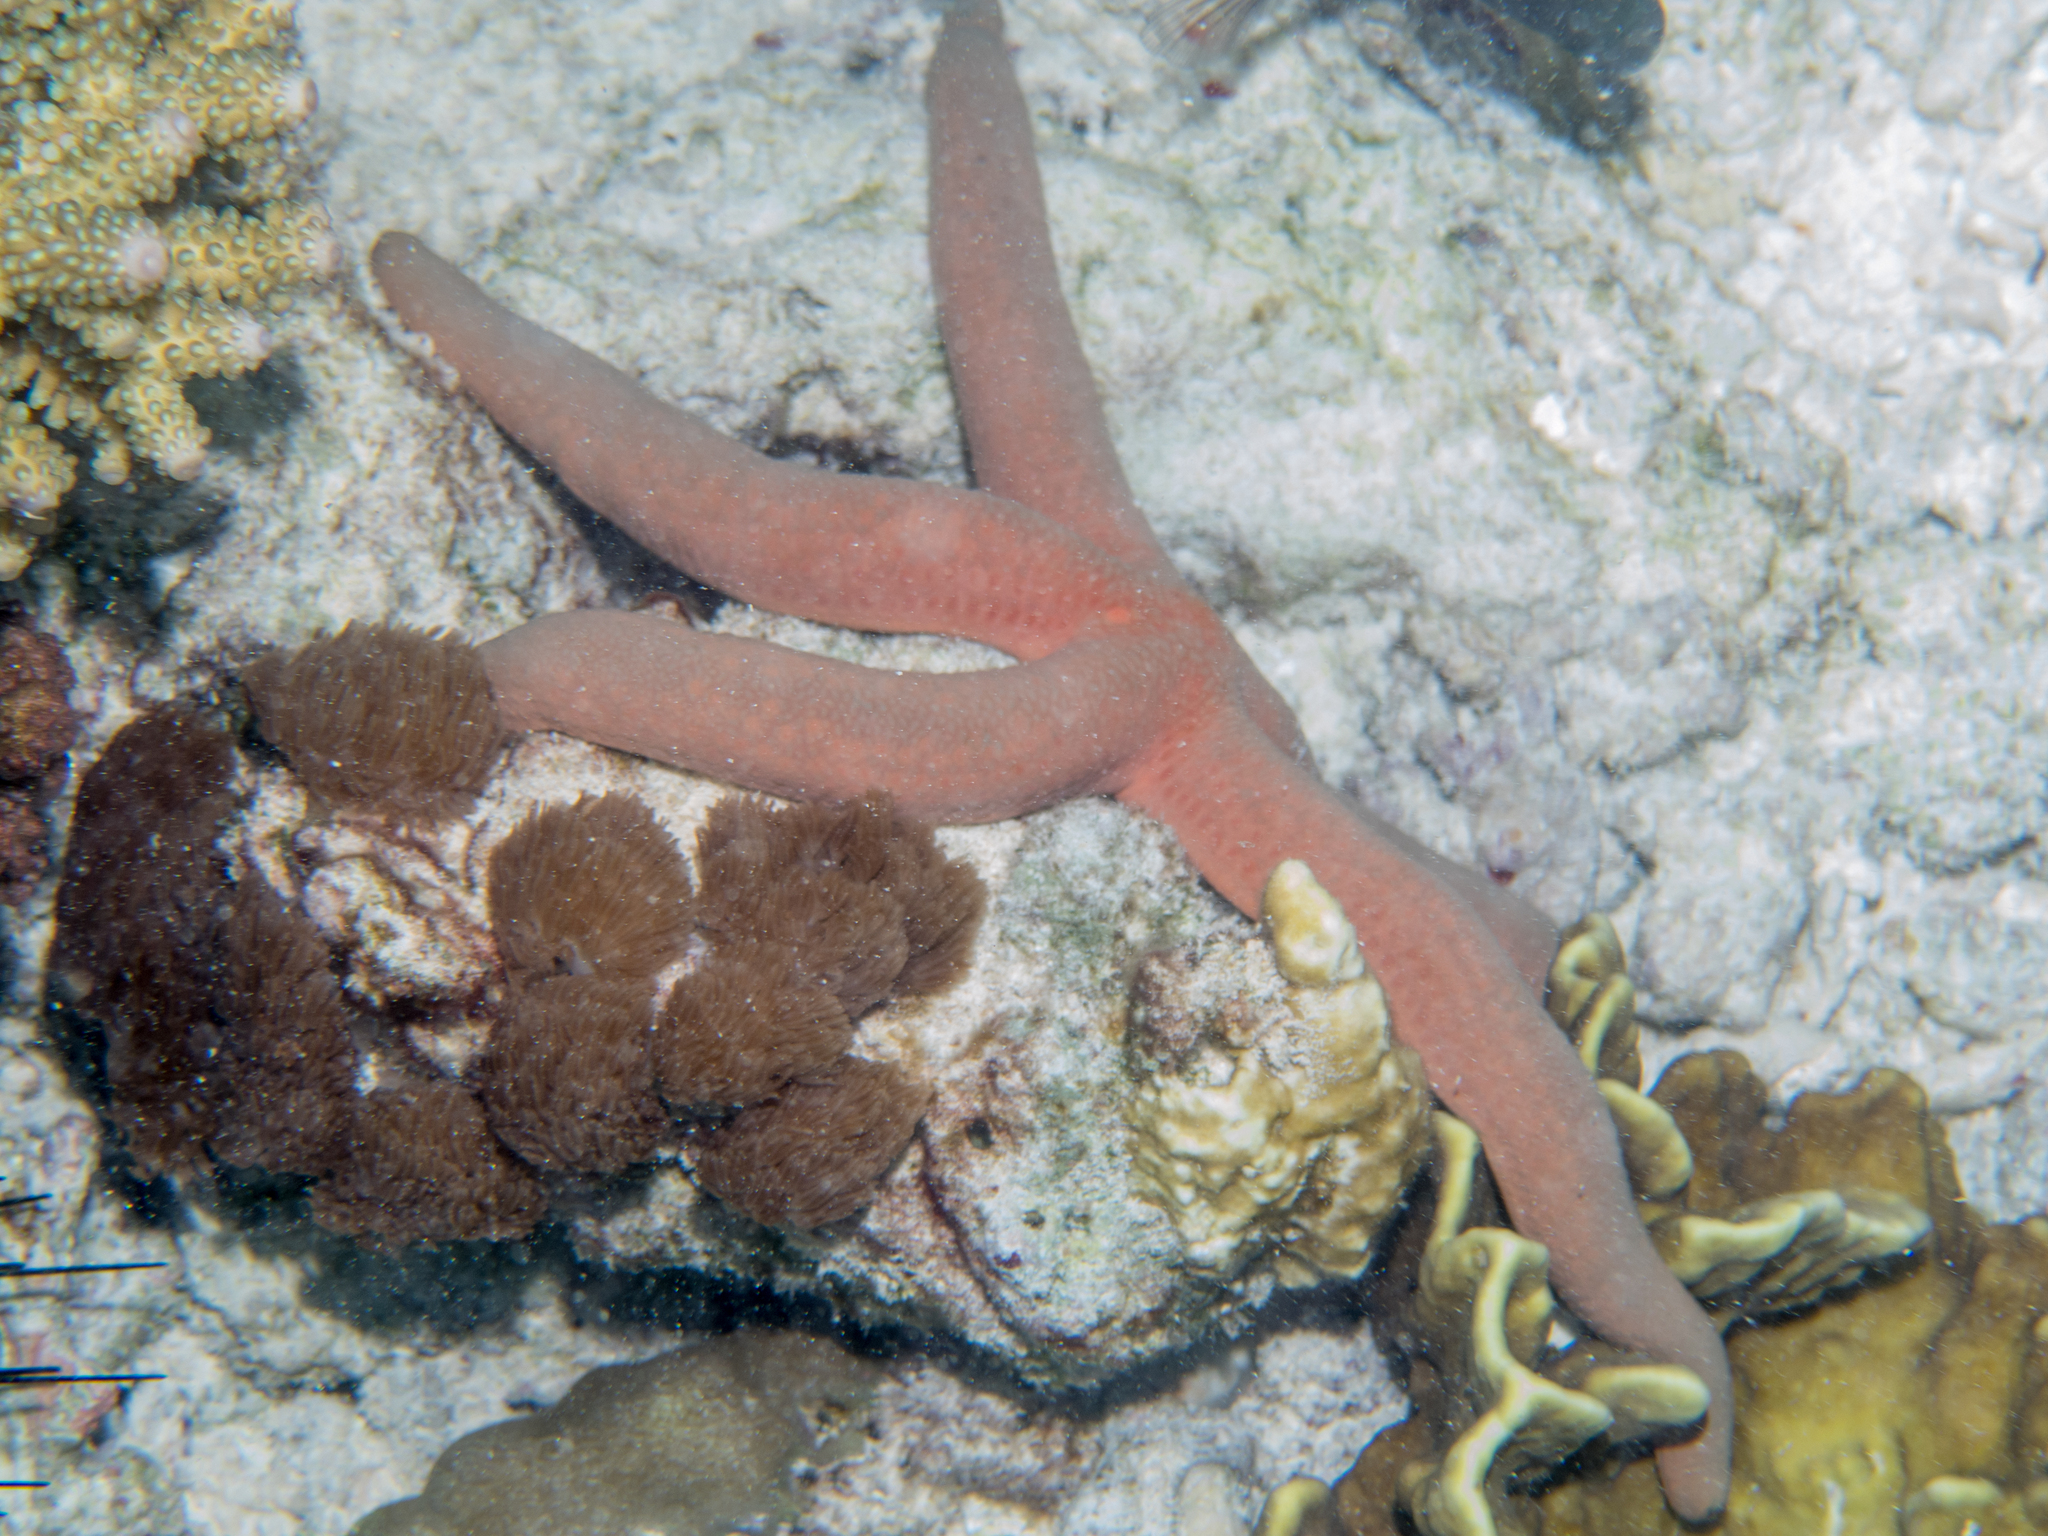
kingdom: Animalia
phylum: Echinodermata
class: Asteroidea
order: Valvatida
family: Ophidiasteridae
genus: Linckia
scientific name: Linckia laevigata
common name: Azure sea star
